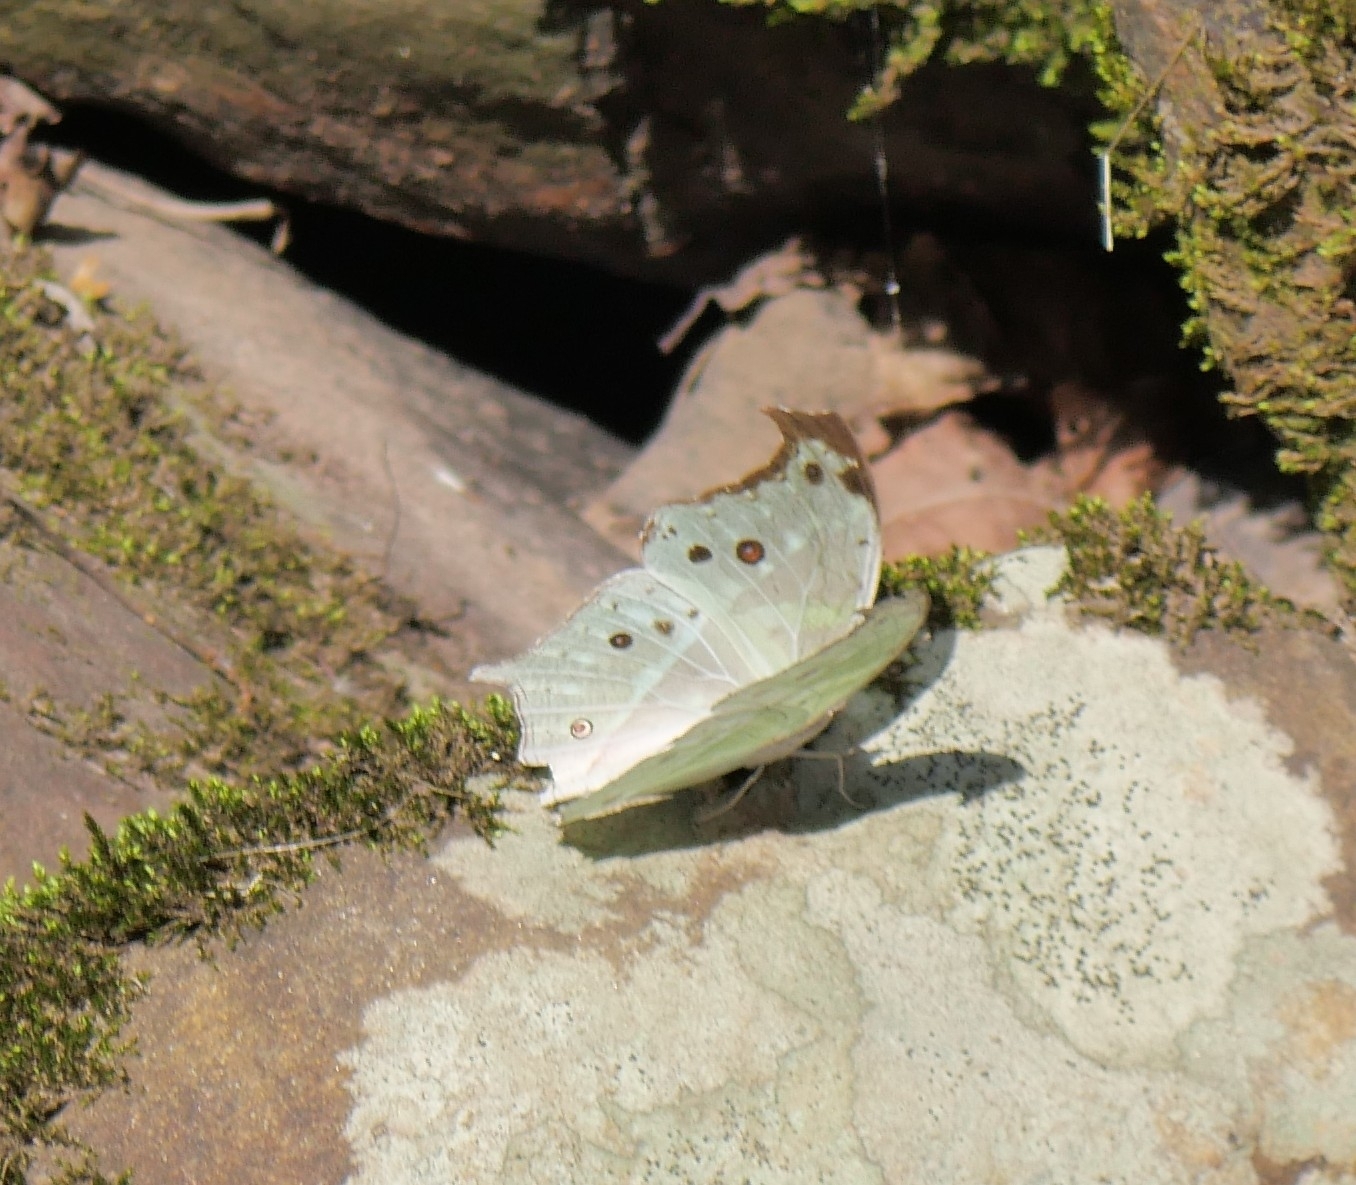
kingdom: Animalia
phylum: Arthropoda
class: Insecta
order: Lepidoptera
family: Nymphalidae
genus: Salamis
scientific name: Salamis Protogoniomorpha parhassus
